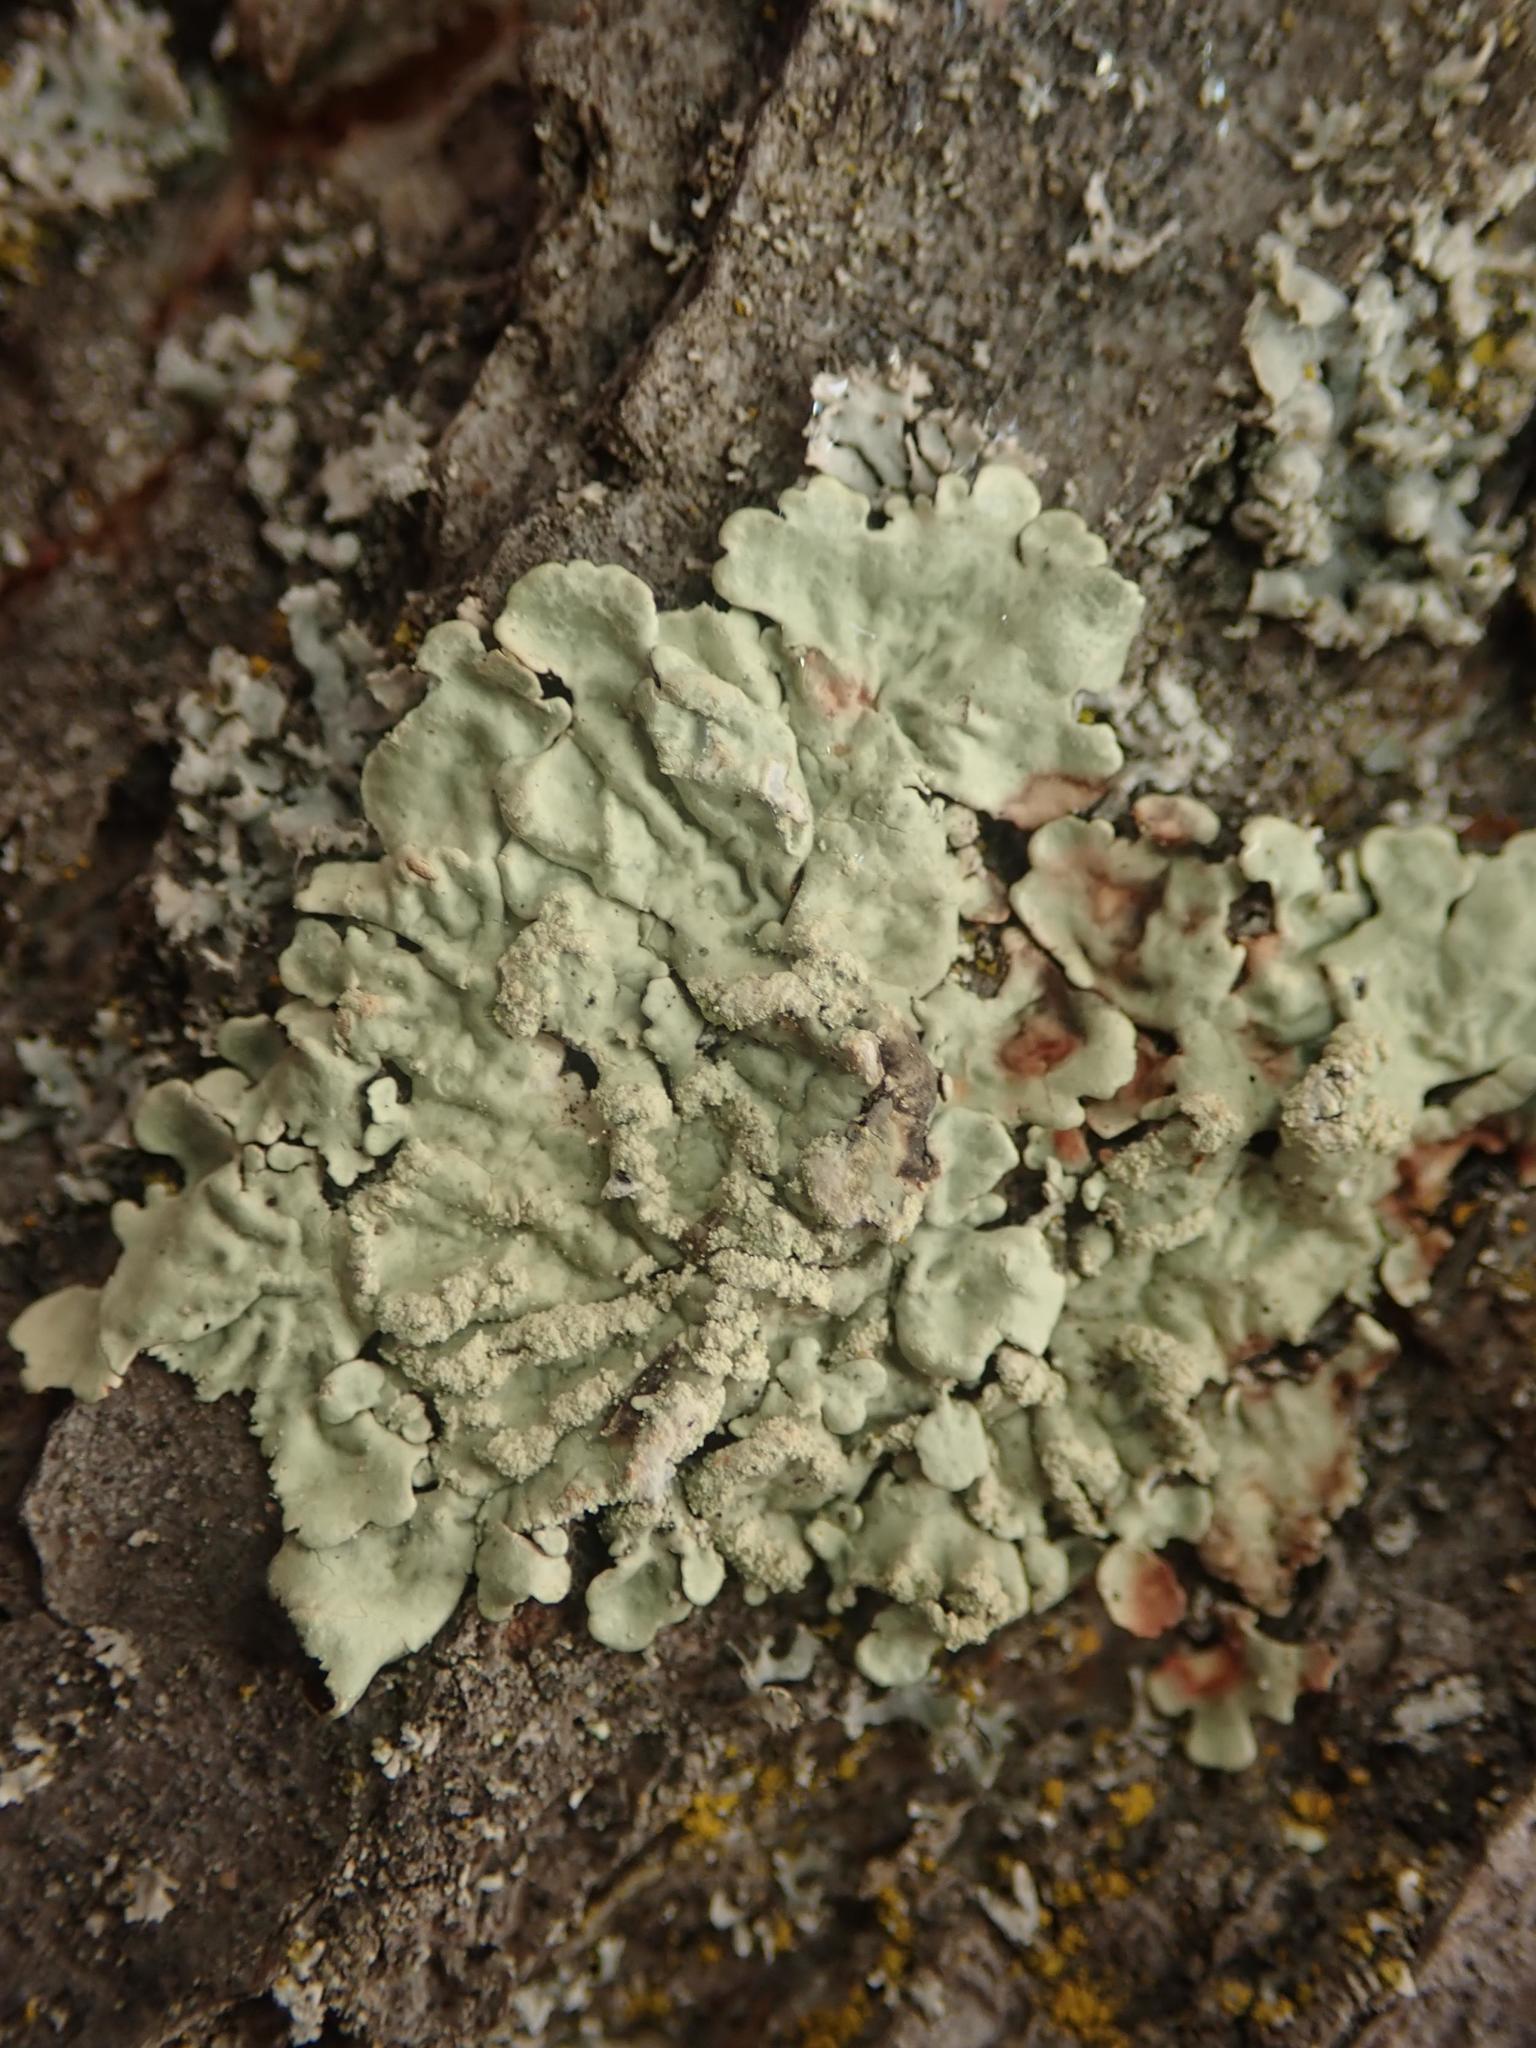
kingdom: Fungi
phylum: Ascomycota
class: Lecanoromycetes
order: Lecanorales
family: Parmeliaceae
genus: Flavoparmelia
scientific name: Flavoparmelia caperata
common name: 40-mile per hour lichen
